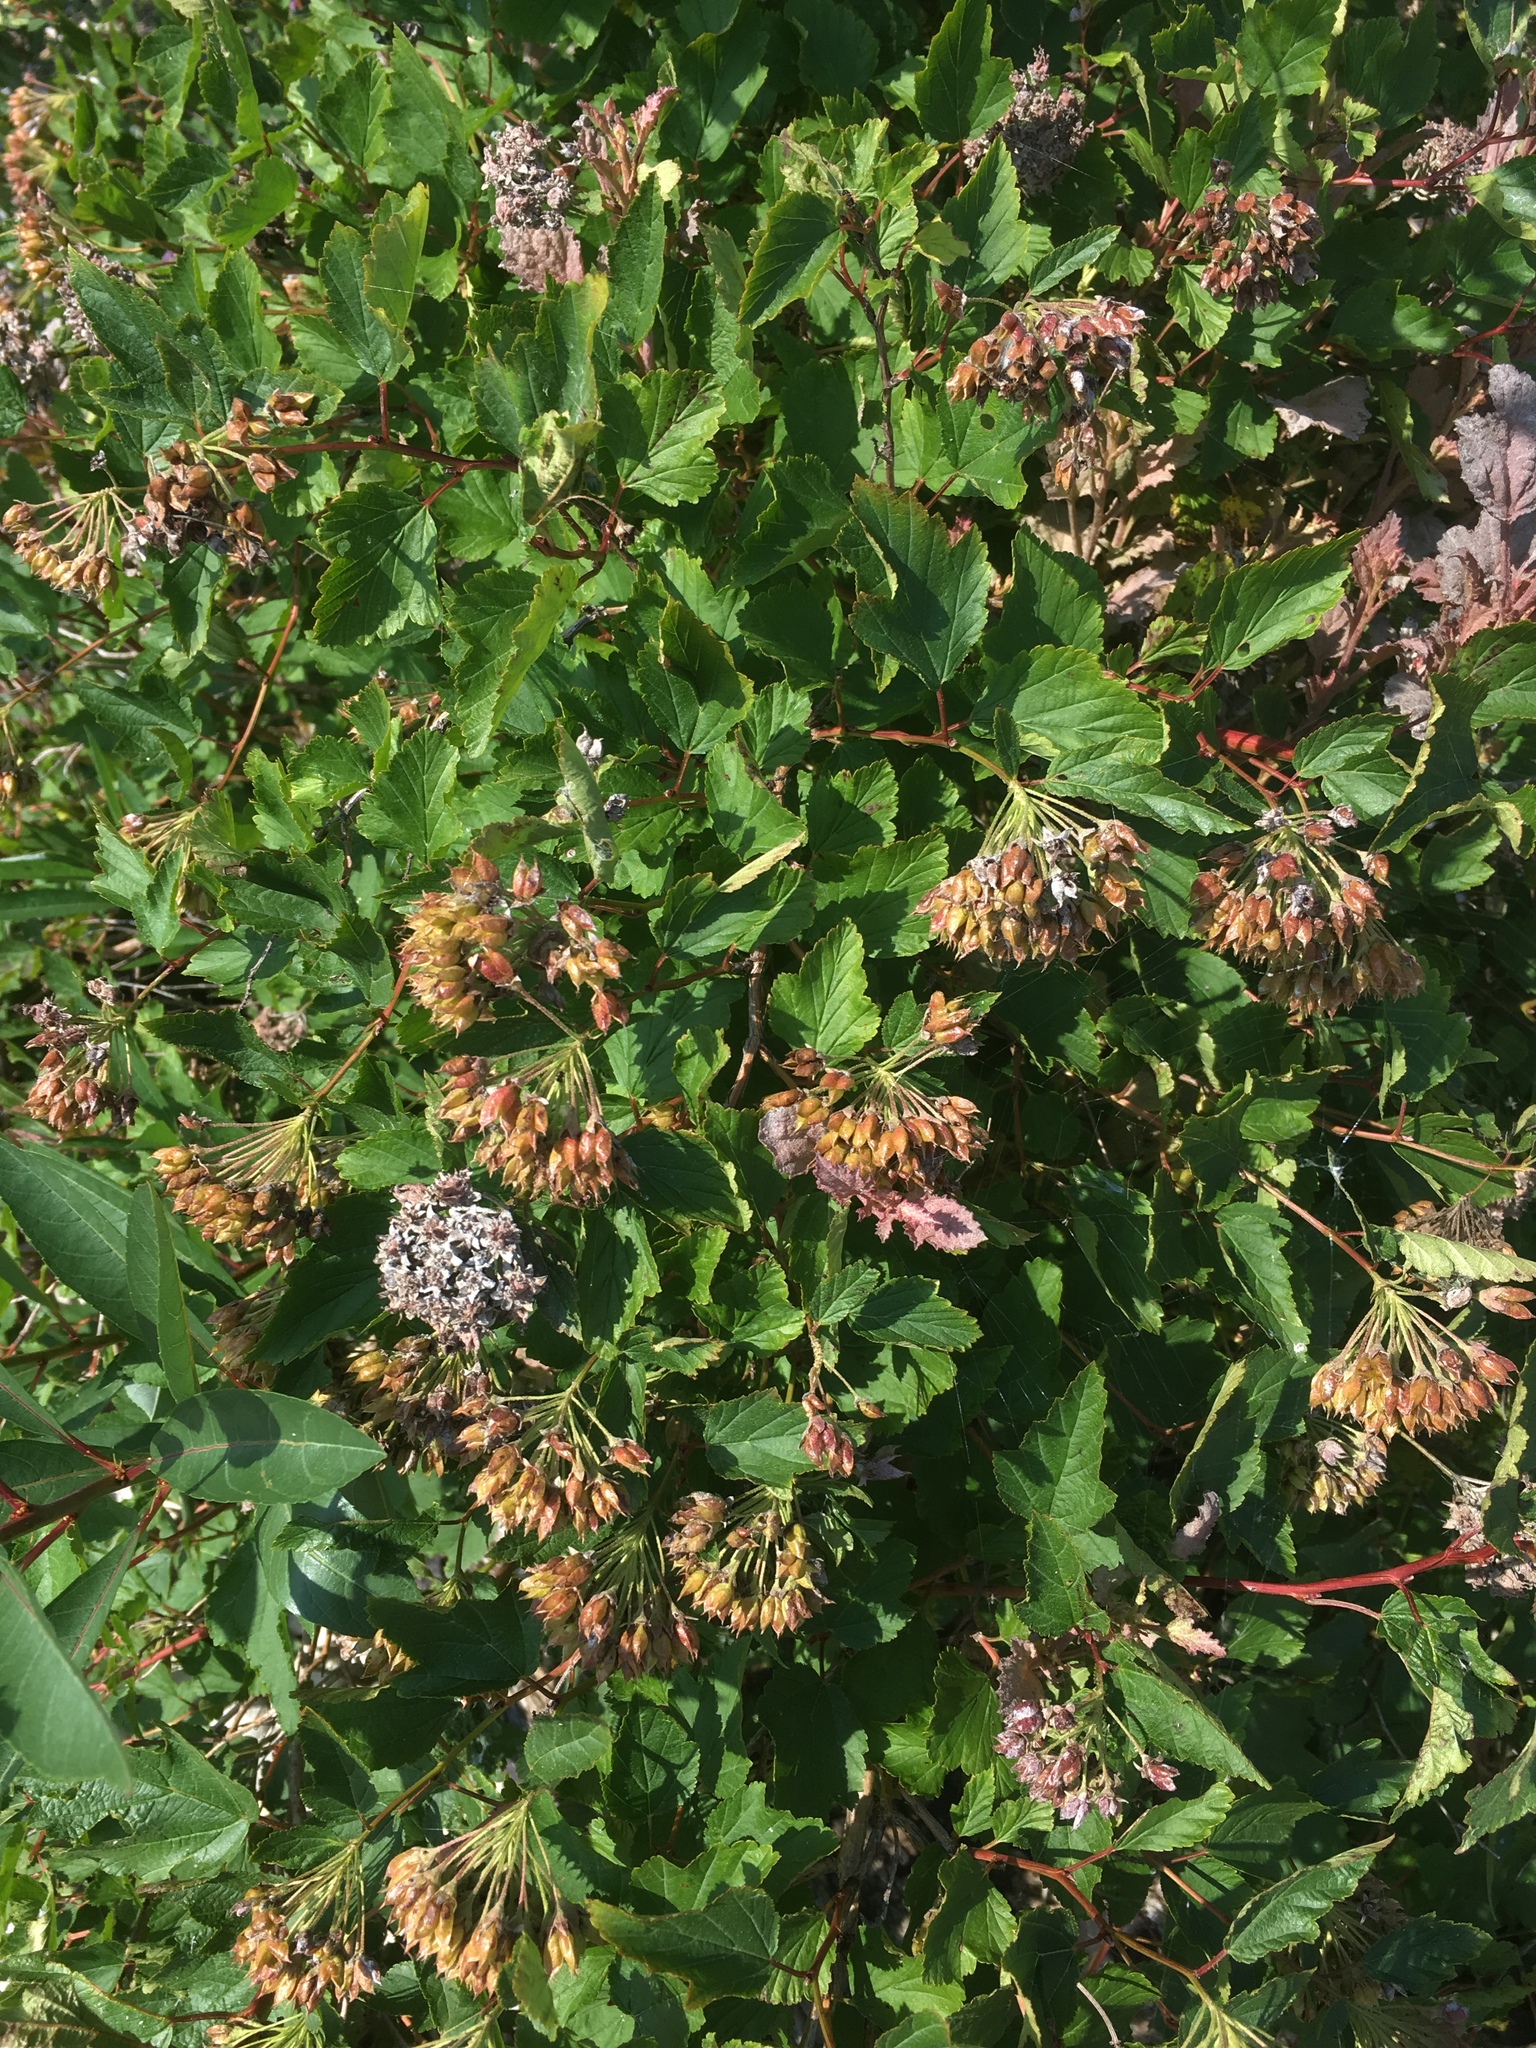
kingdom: Plantae
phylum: Tracheophyta
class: Magnoliopsida
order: Rosales
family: Rosaceae
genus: Physocarpus
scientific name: Physocarpus opulifolius
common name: Ninebark
